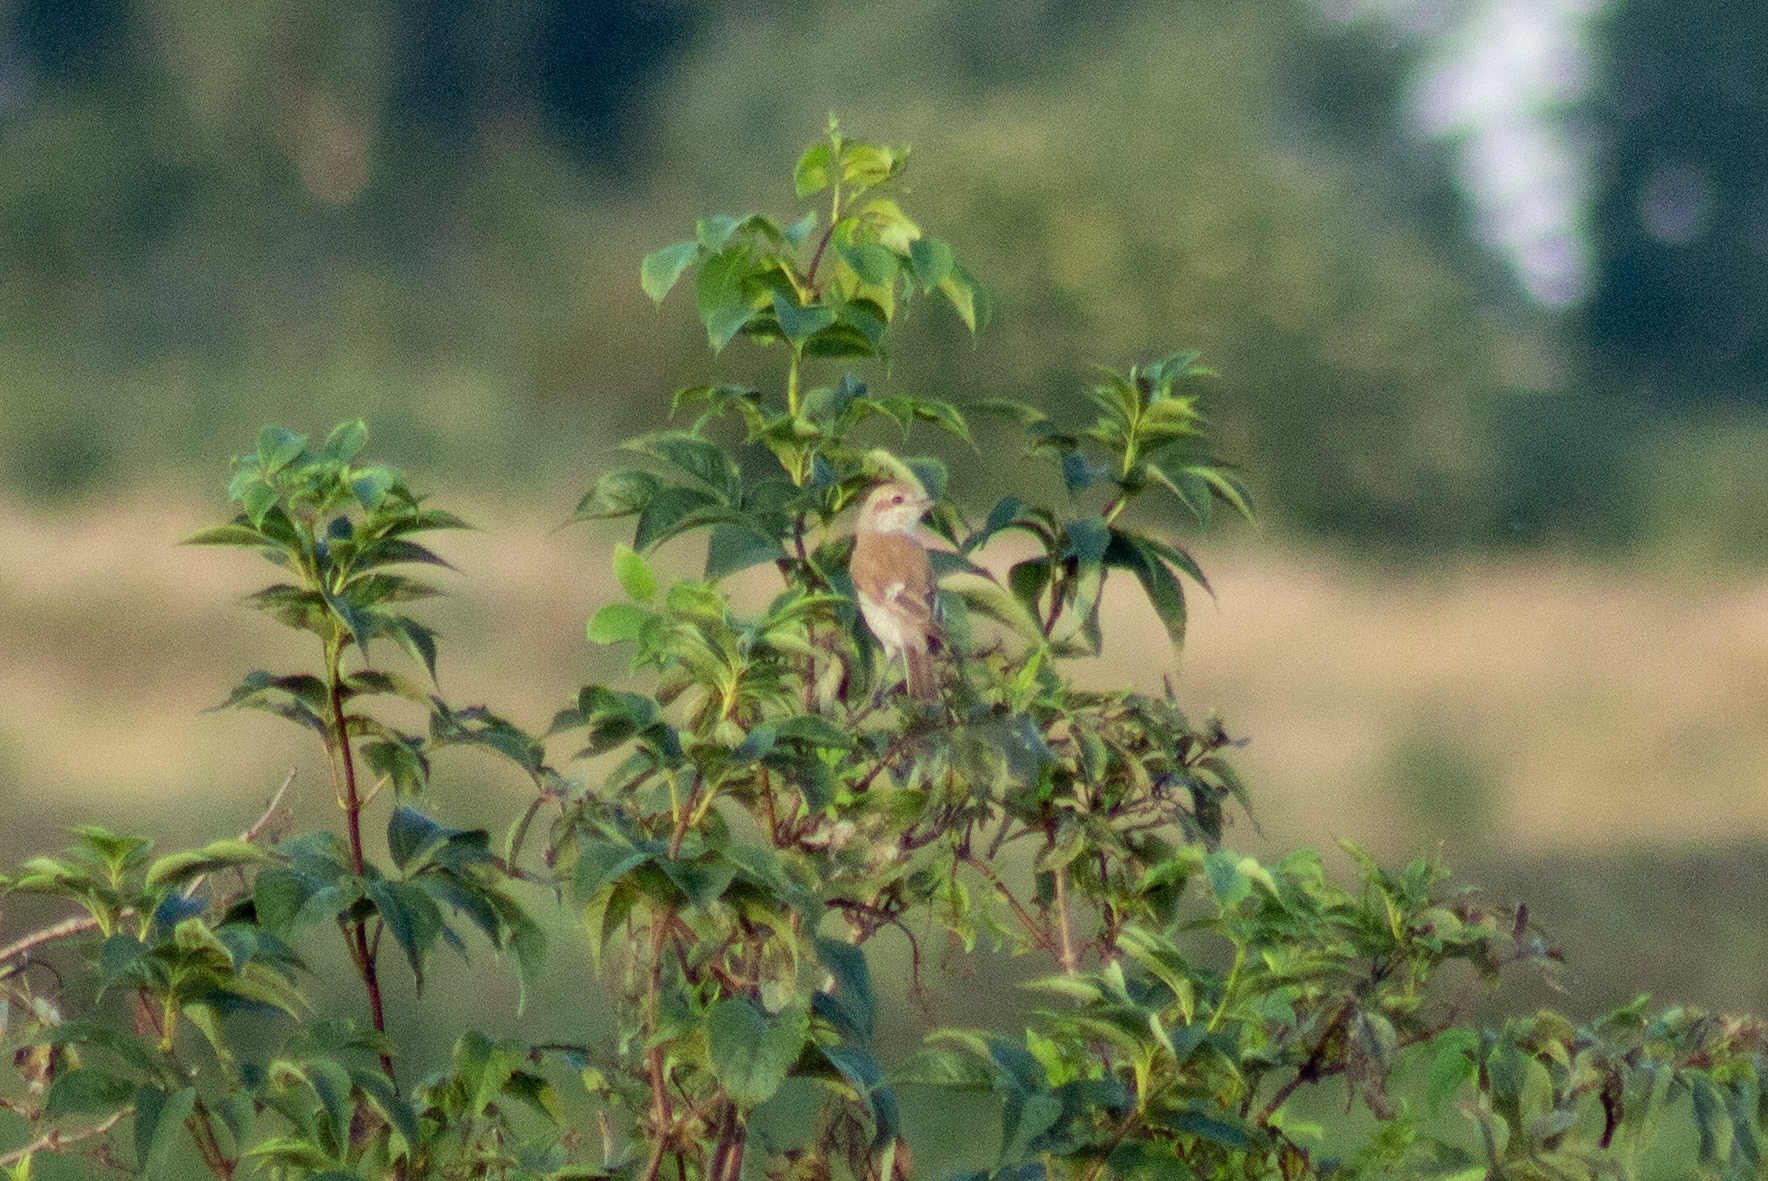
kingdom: Animalia
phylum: Chordata
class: Aves
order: Passeriformes
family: Laniidae
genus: Lanius
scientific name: Lanius collurio
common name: Red-backed shrike
